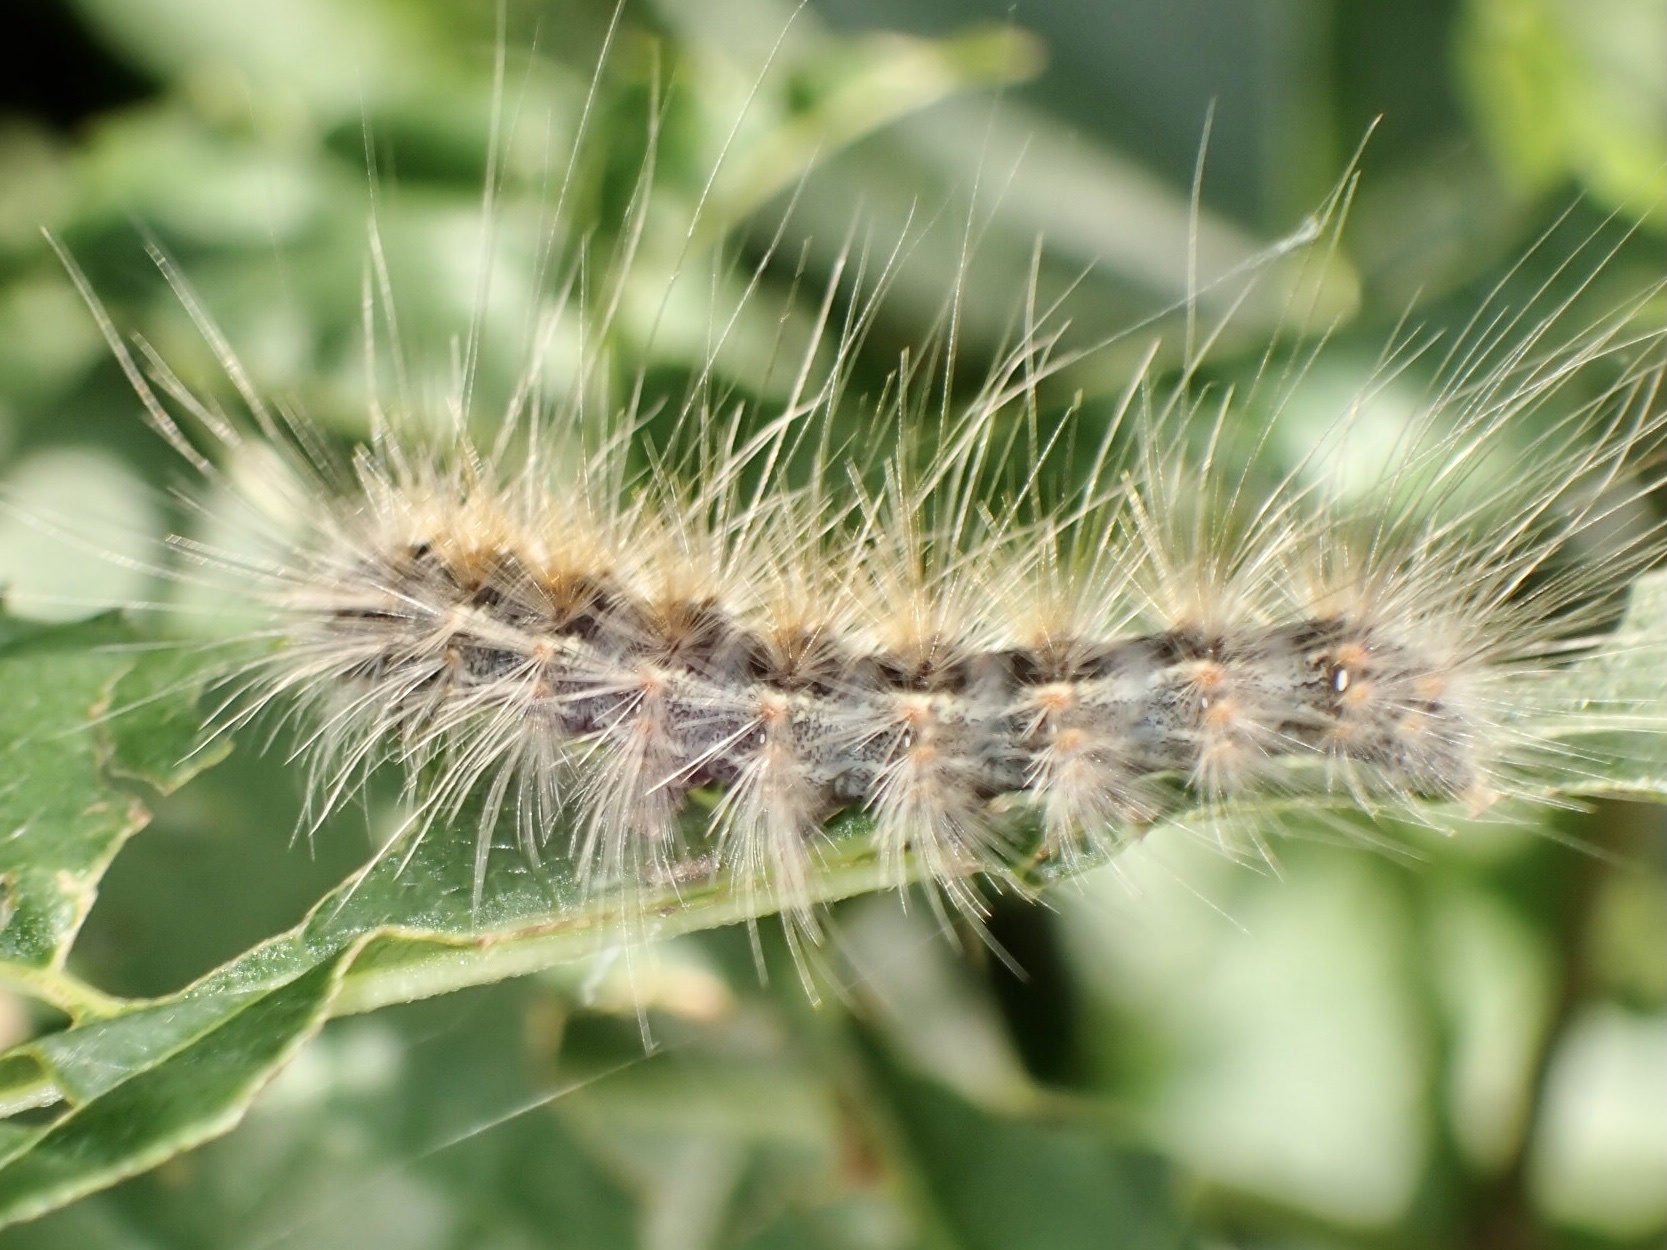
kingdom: Animalia
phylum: Arthropoda
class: Insecta
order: Lepidoptera
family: Erebidae
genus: Hyphantria
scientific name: Hyphantria cunea
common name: American white moth
